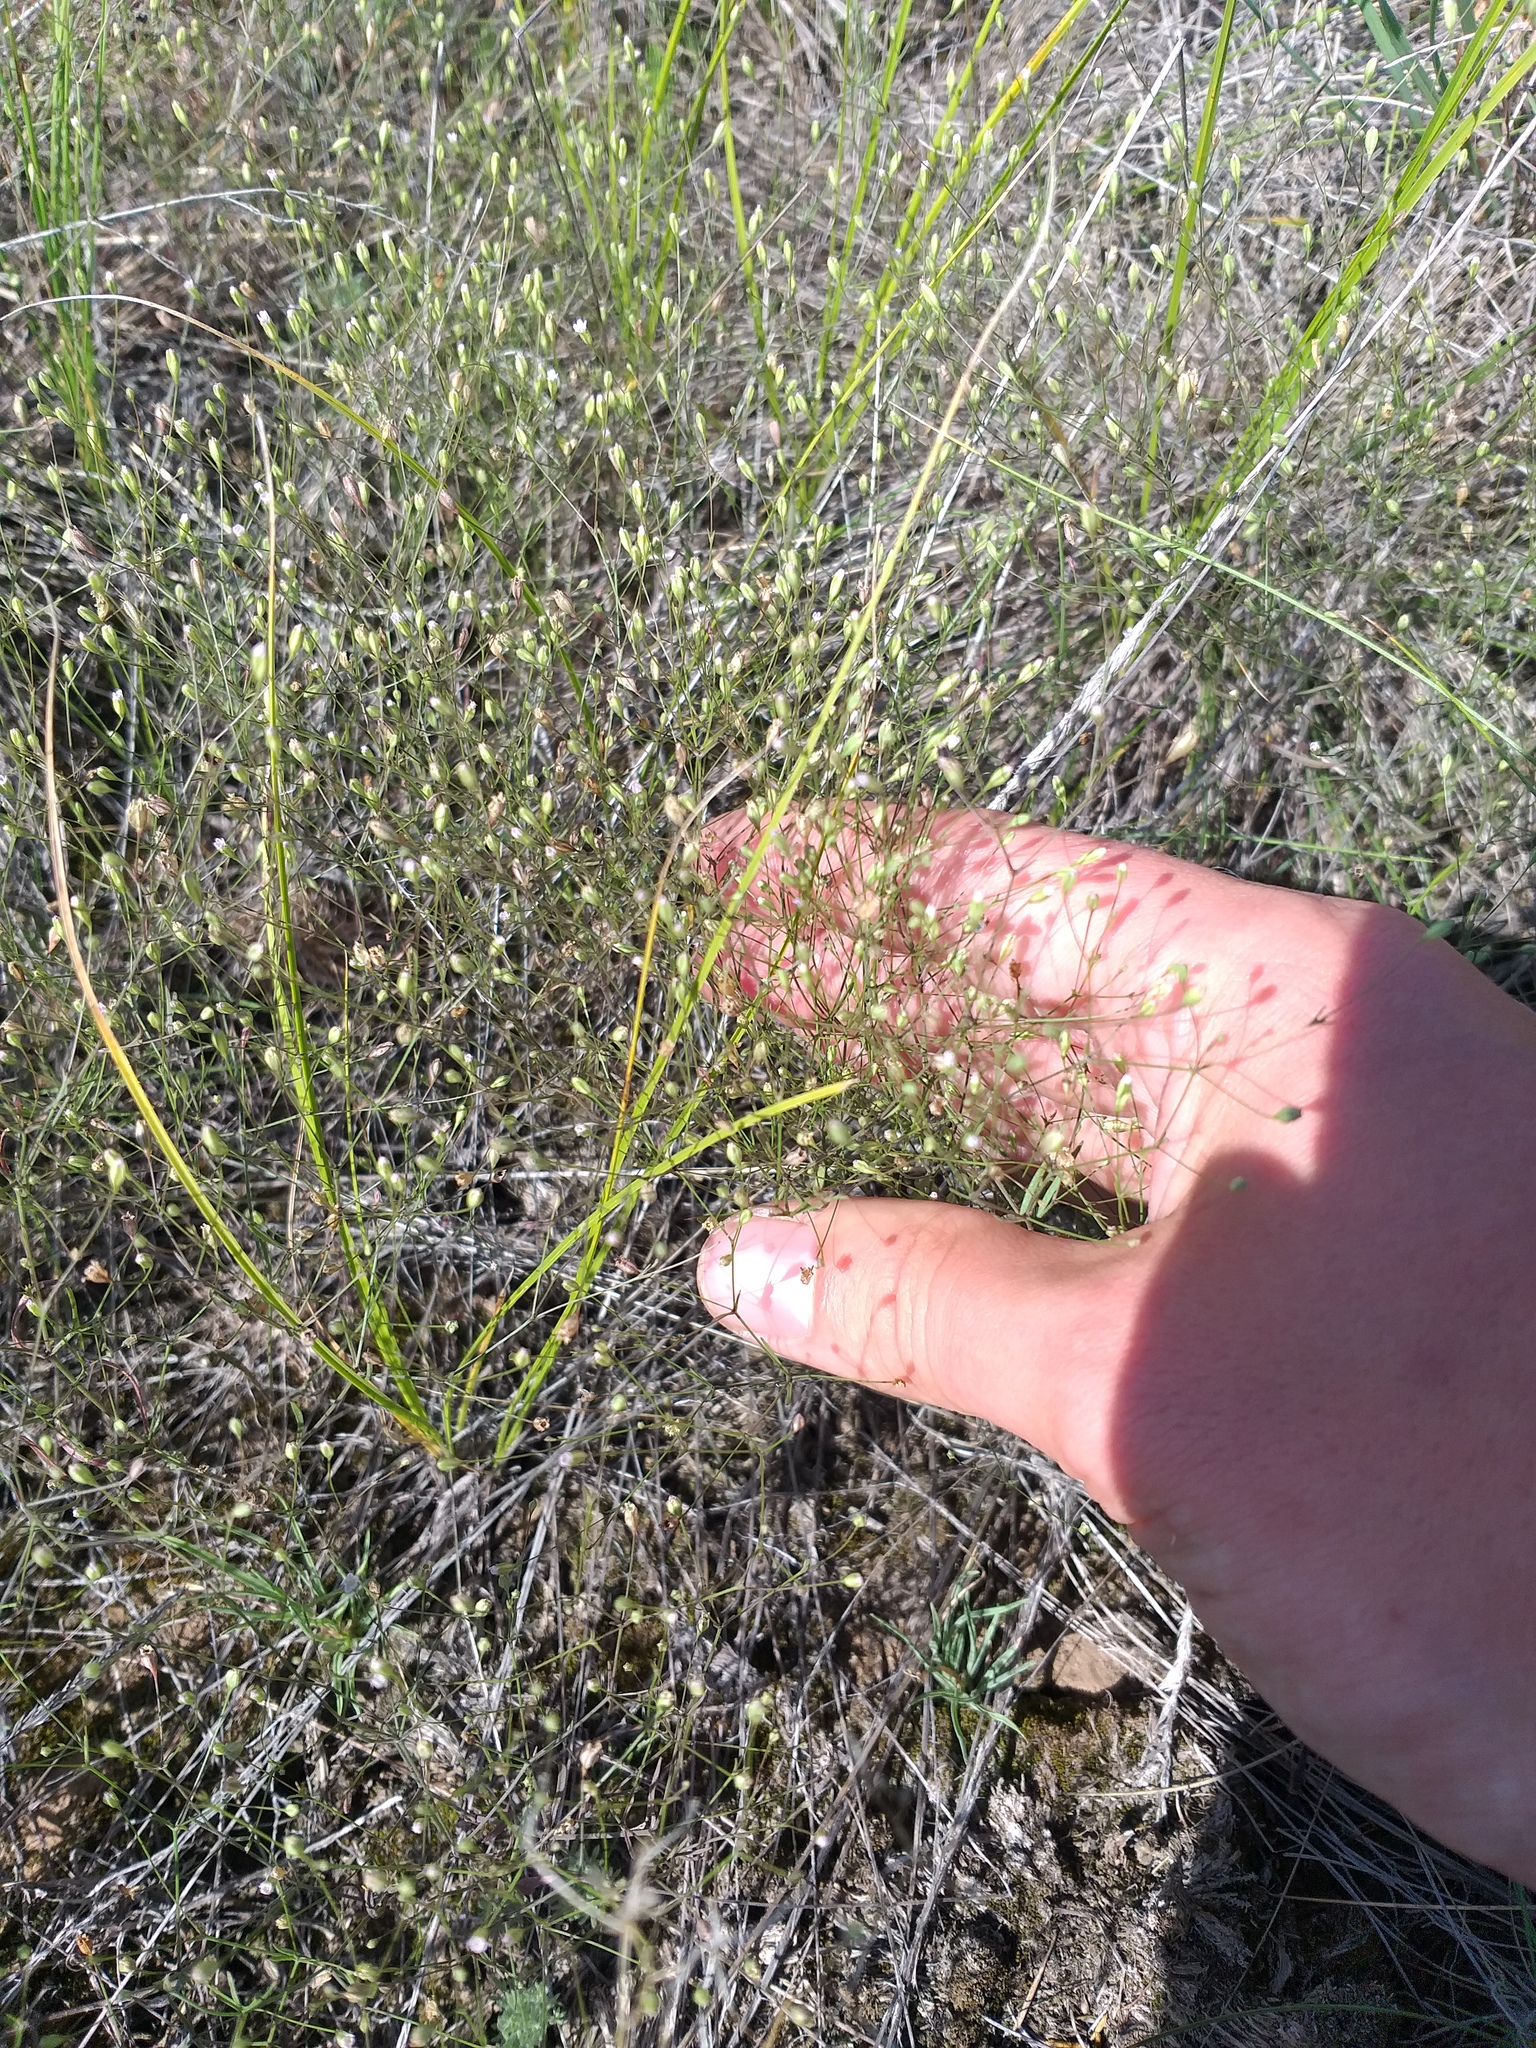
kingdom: Plantae
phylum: Tracheophyta
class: Magnoliopsida
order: Caryophyllales
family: Caryophyllaceae
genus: Psammophiliella
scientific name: Psammophiliella muralis
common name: Cushion baby's-breath
